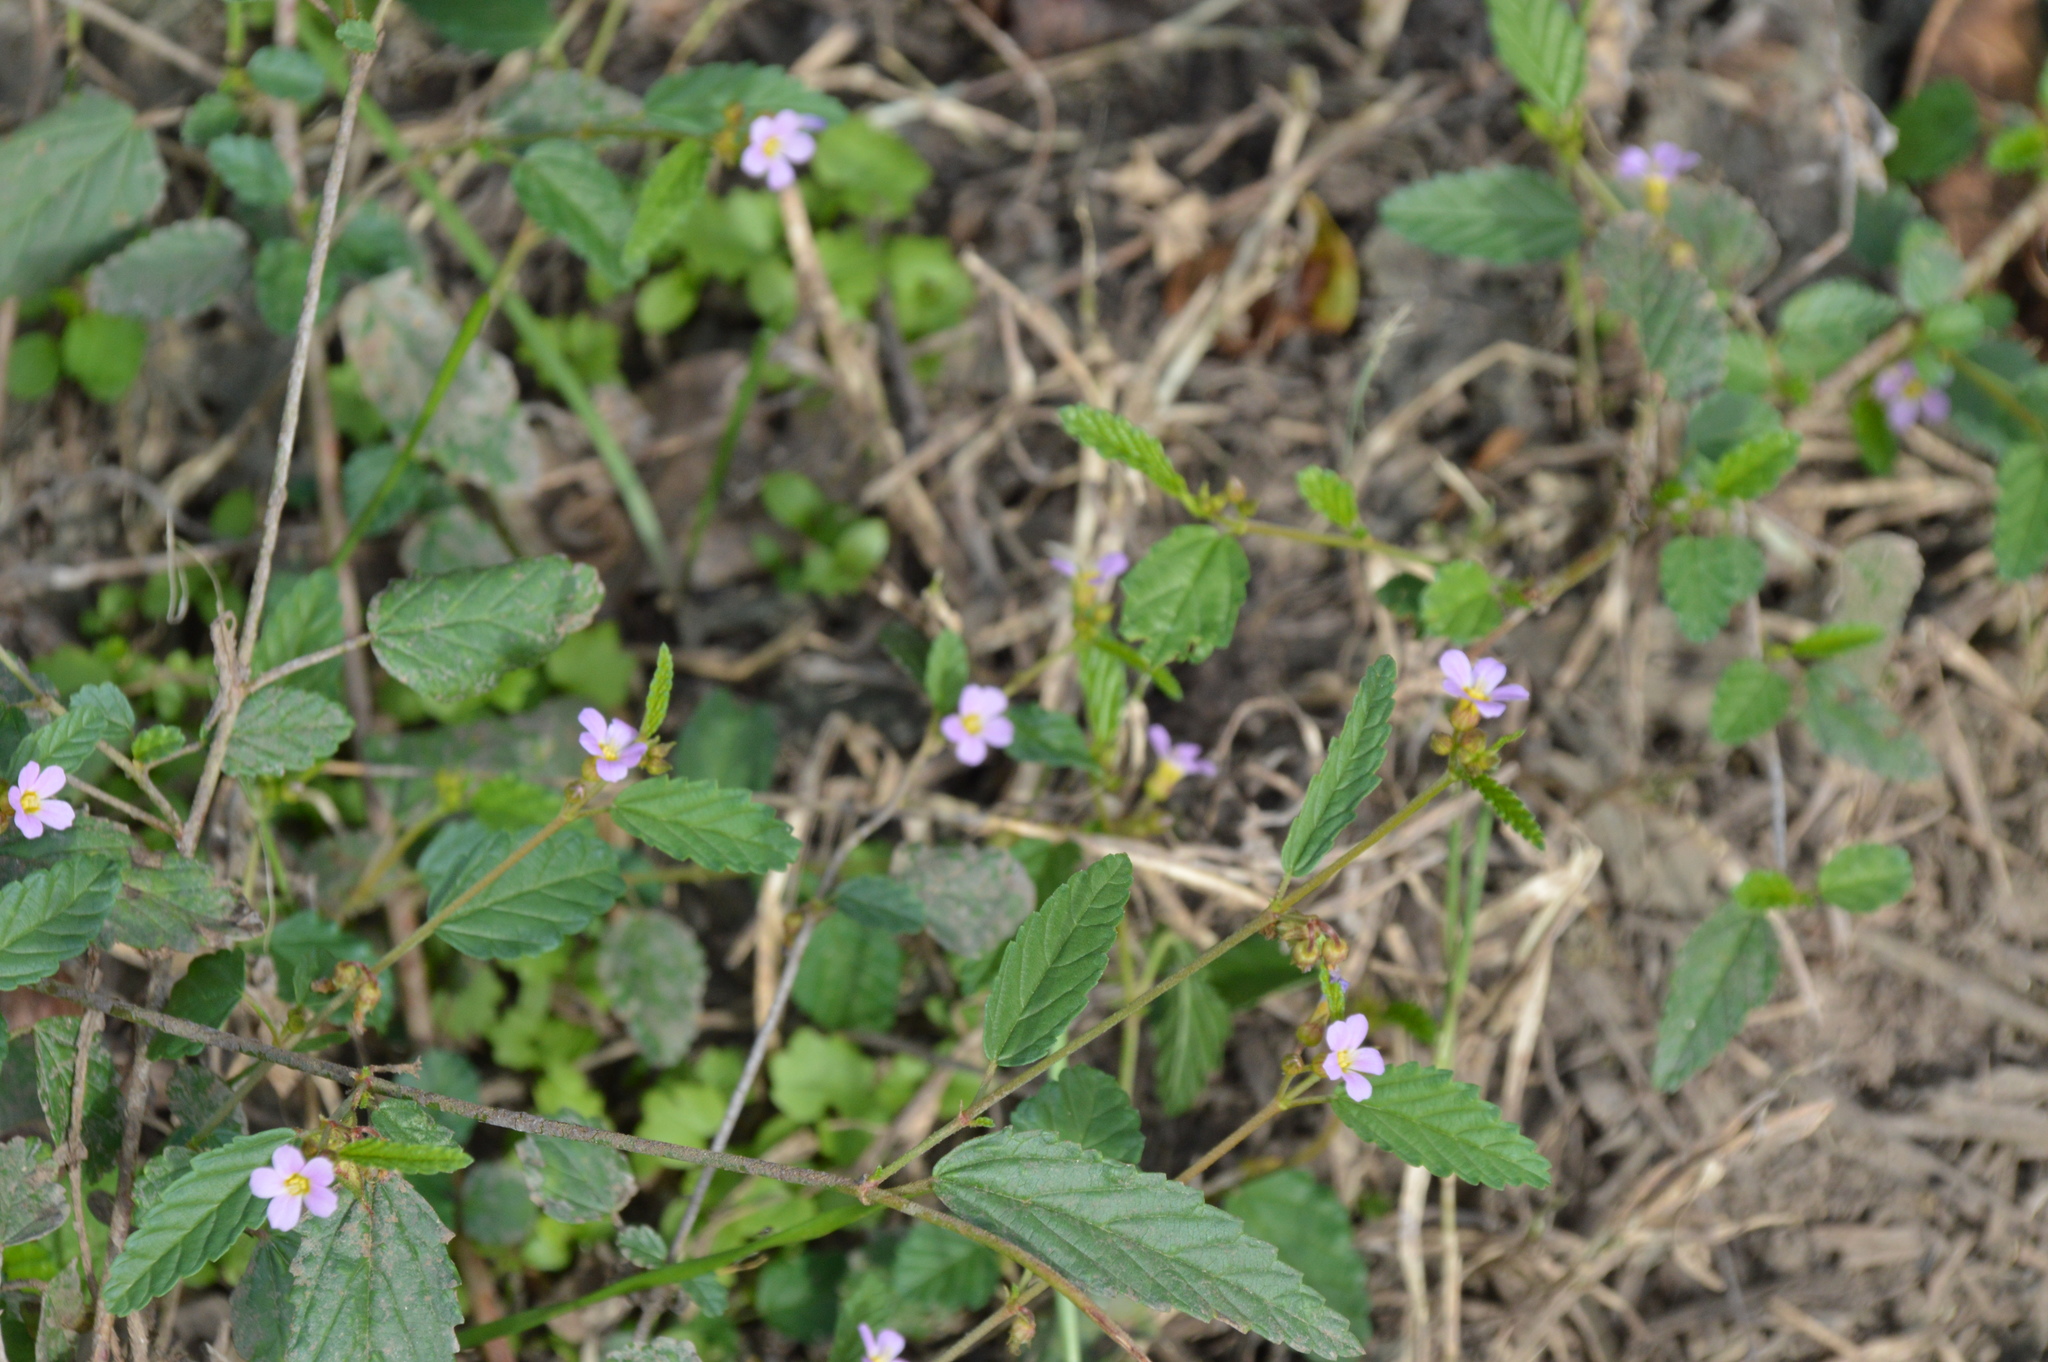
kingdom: Plantae
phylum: Tracheophyta
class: Magnoliopsida
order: Malvales
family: Malvaceae
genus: Melochia
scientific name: Melochia pyramidata
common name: Pyramidflower
